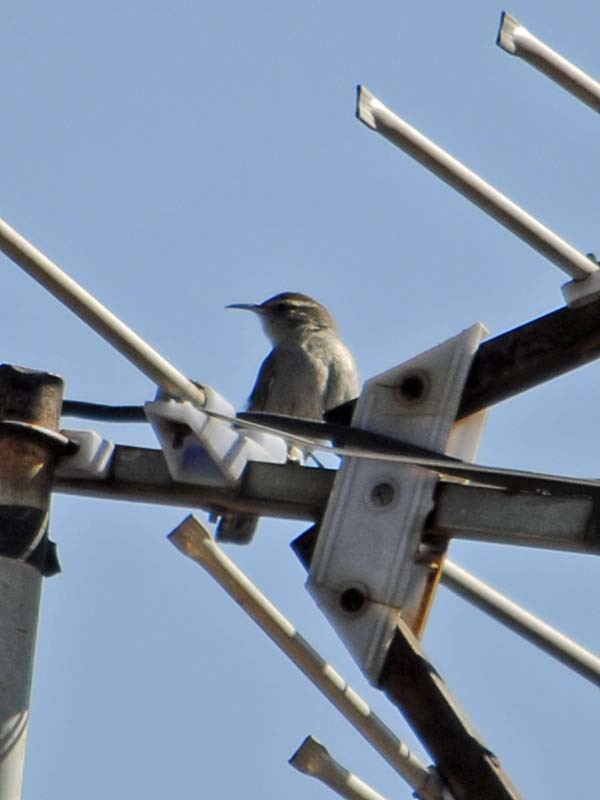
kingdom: Animalia
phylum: Chordata
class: Aves
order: Passeriformes
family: Troglodytidae
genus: Thryomanes
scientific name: Thryomanes bewickii
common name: Bewick's wren
